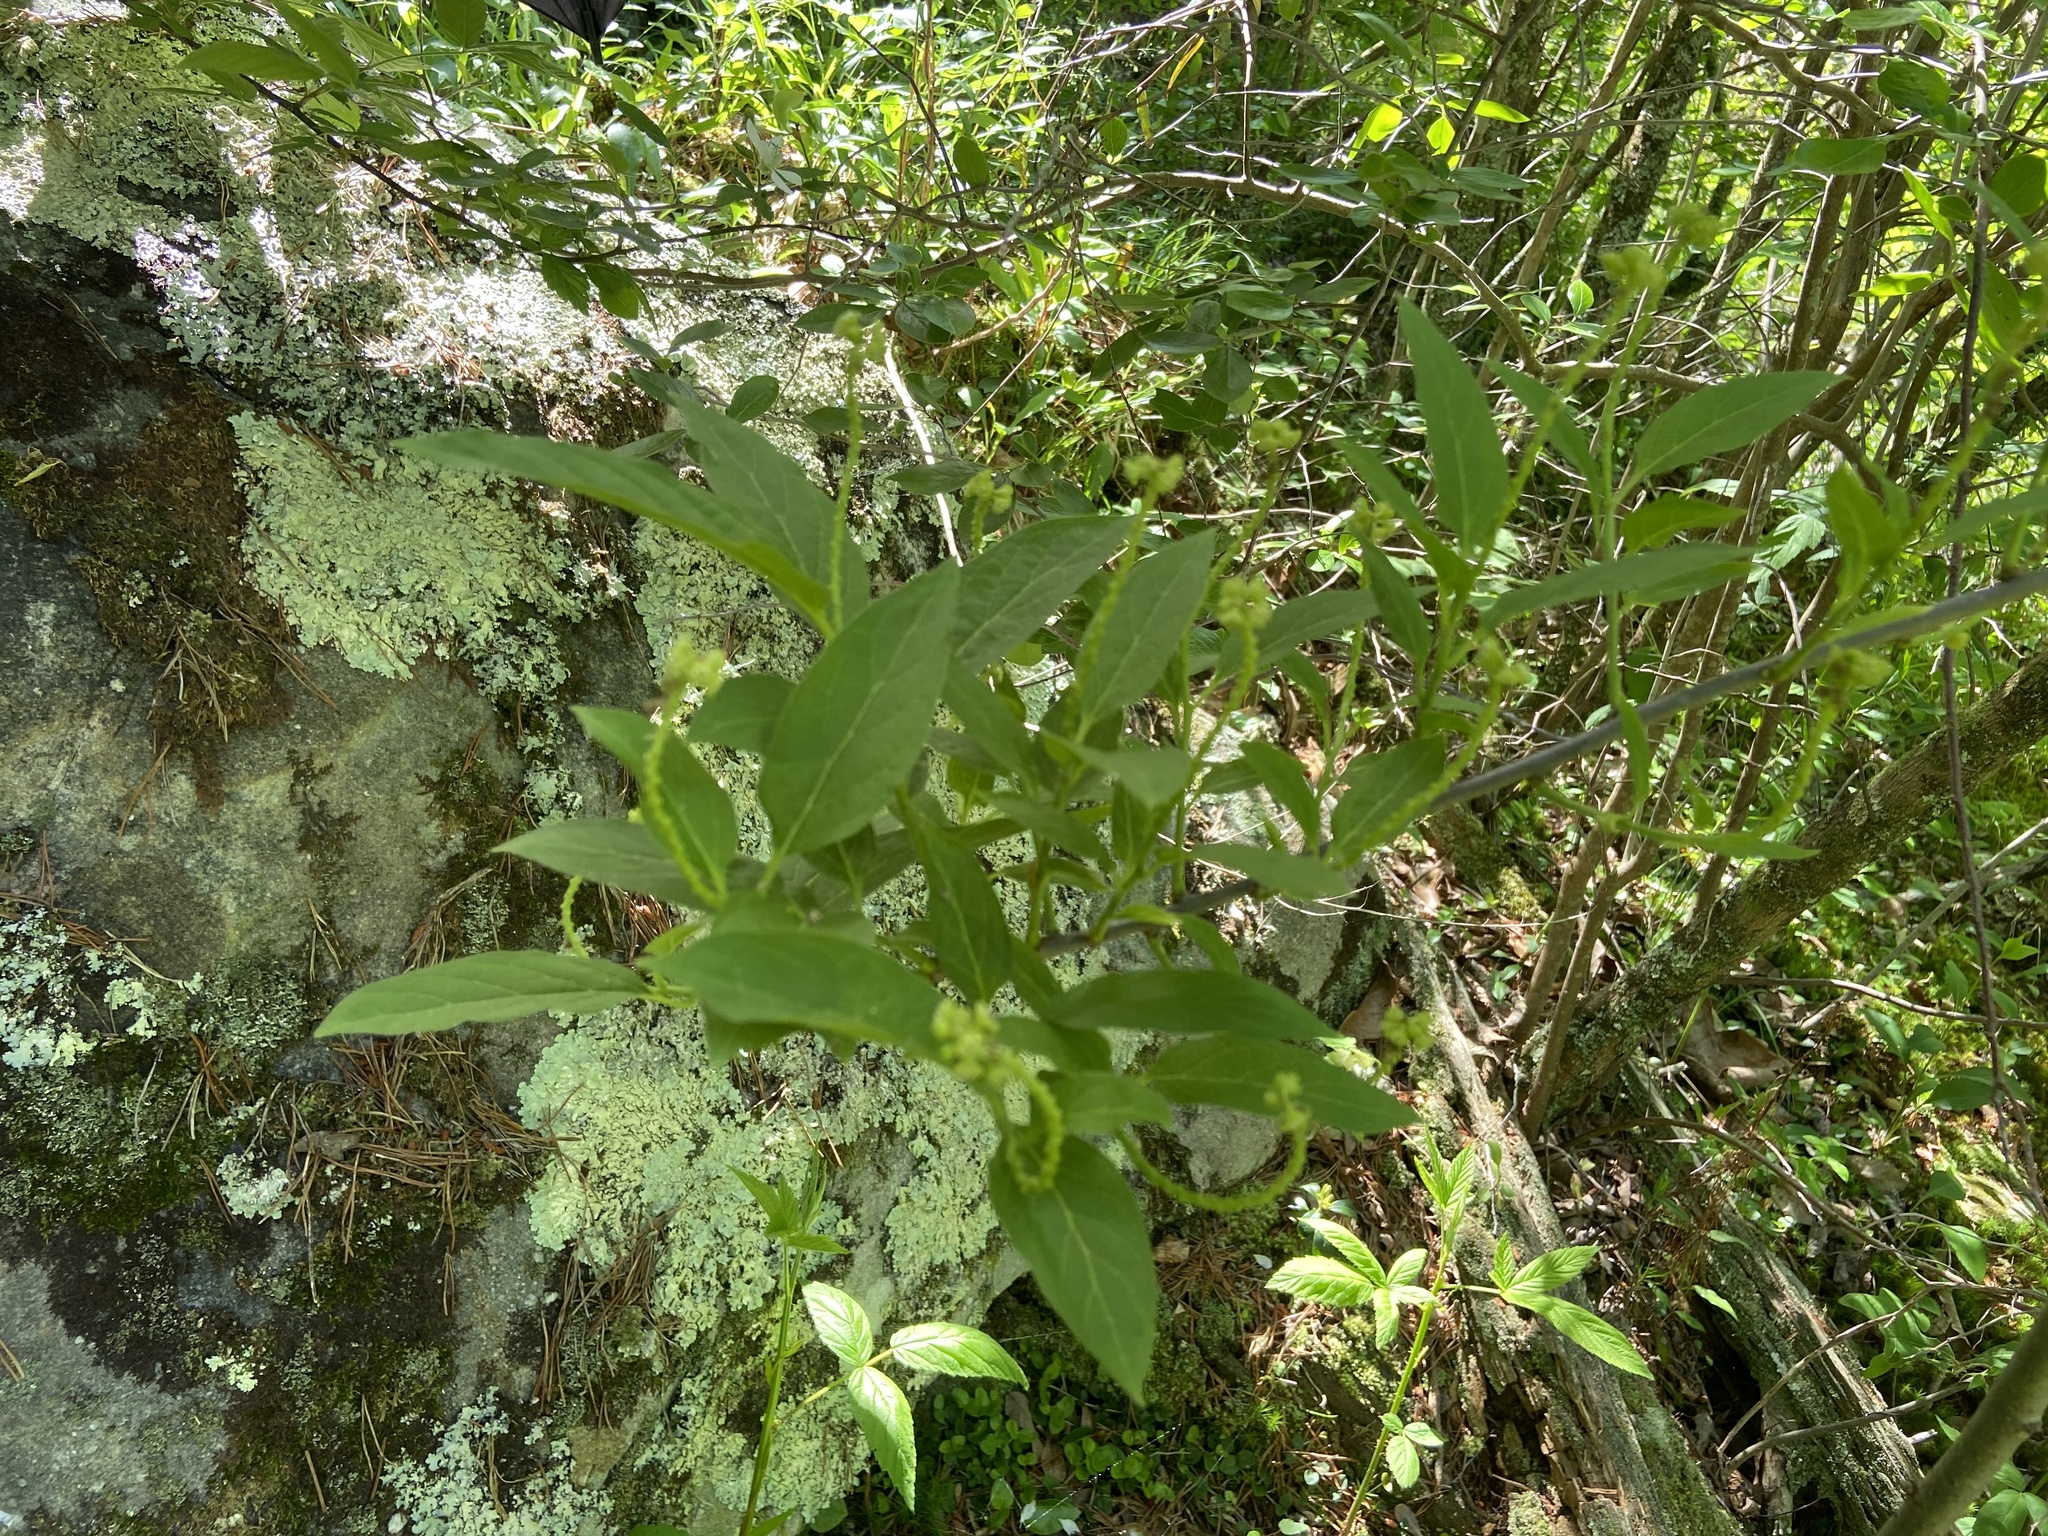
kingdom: Plantae
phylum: Tracheophyta
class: Magnoliopsida
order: Santalales
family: Cervantesiaceae
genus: Pyrularia
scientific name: Pyrularia pubera
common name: Oilnut
